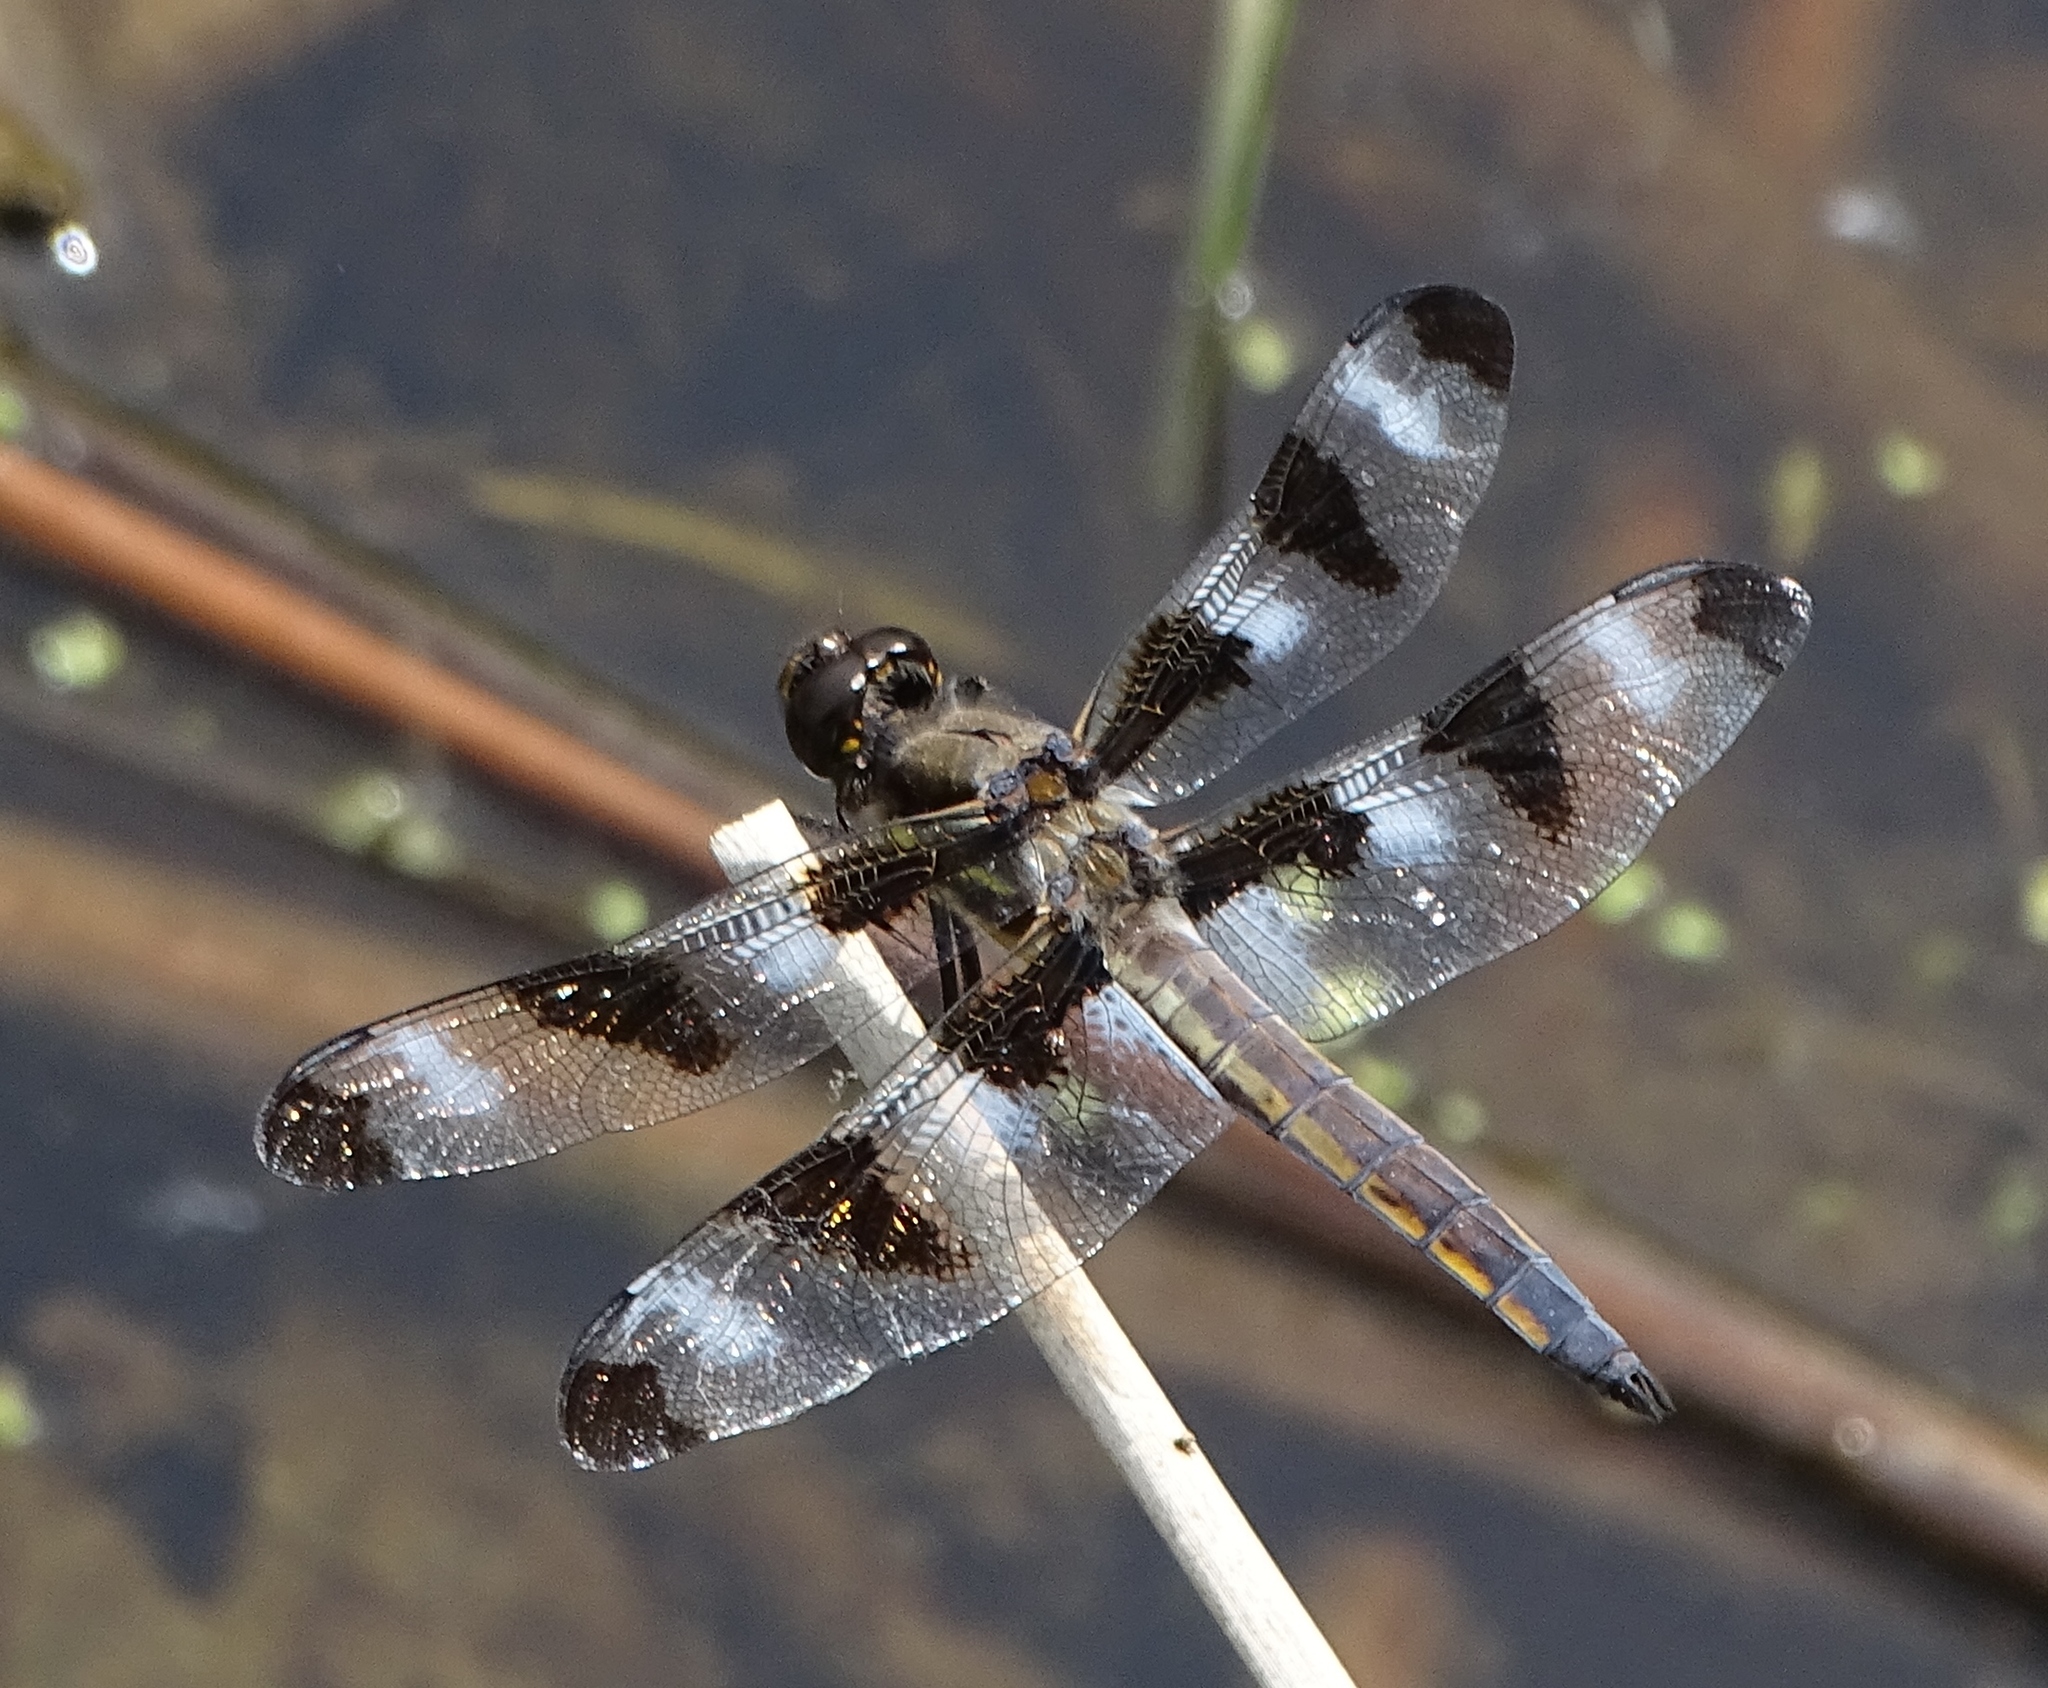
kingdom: Animalia
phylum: Arthropoda
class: Insecta
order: Odonata
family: Libellulidae
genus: Libellula
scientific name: Libellula pulchella
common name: Twelve-spotted skimmer
